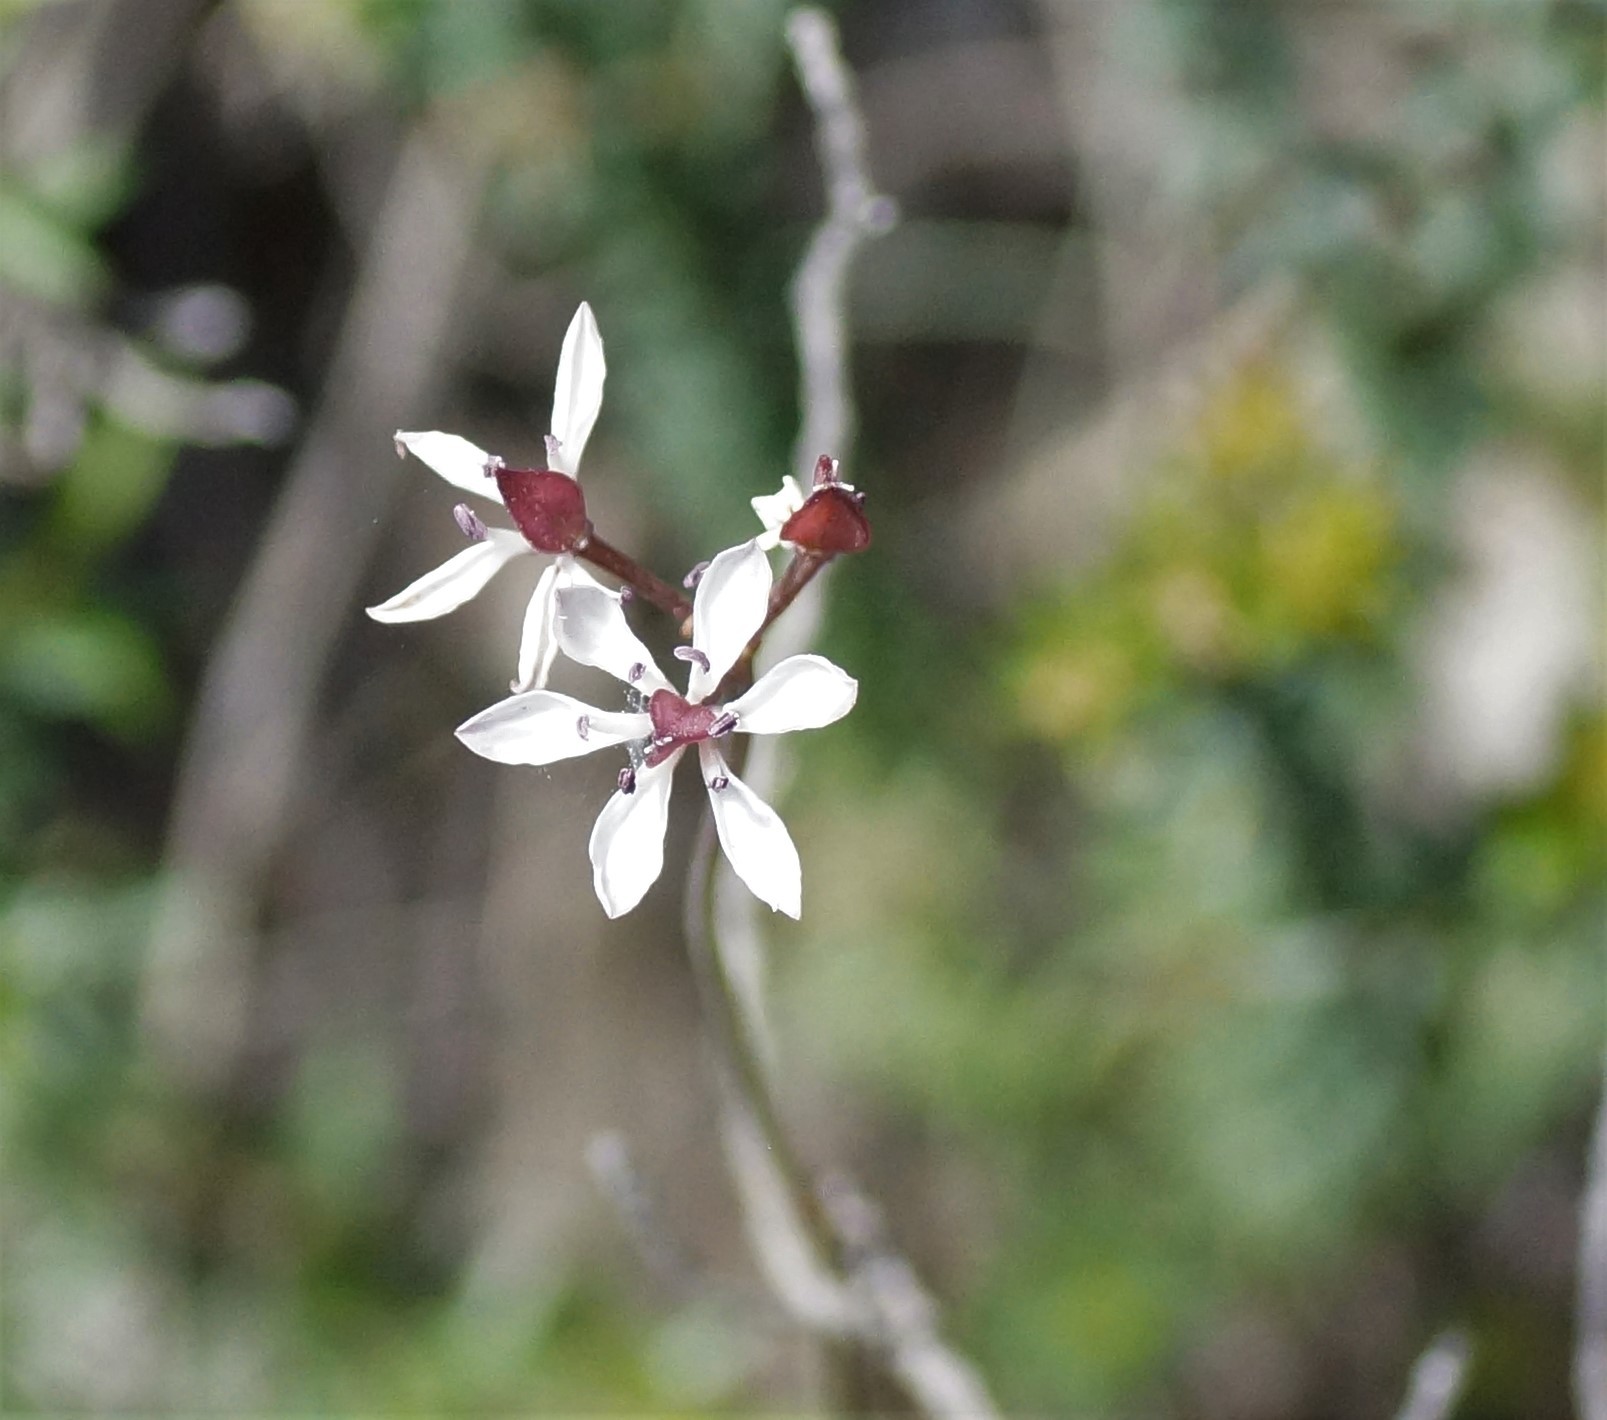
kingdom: Plantae
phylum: Tracheophyta
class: Liliopsida
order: Liliales
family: Colchicaceae
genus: Burchardia
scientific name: Burchardia umbellata
